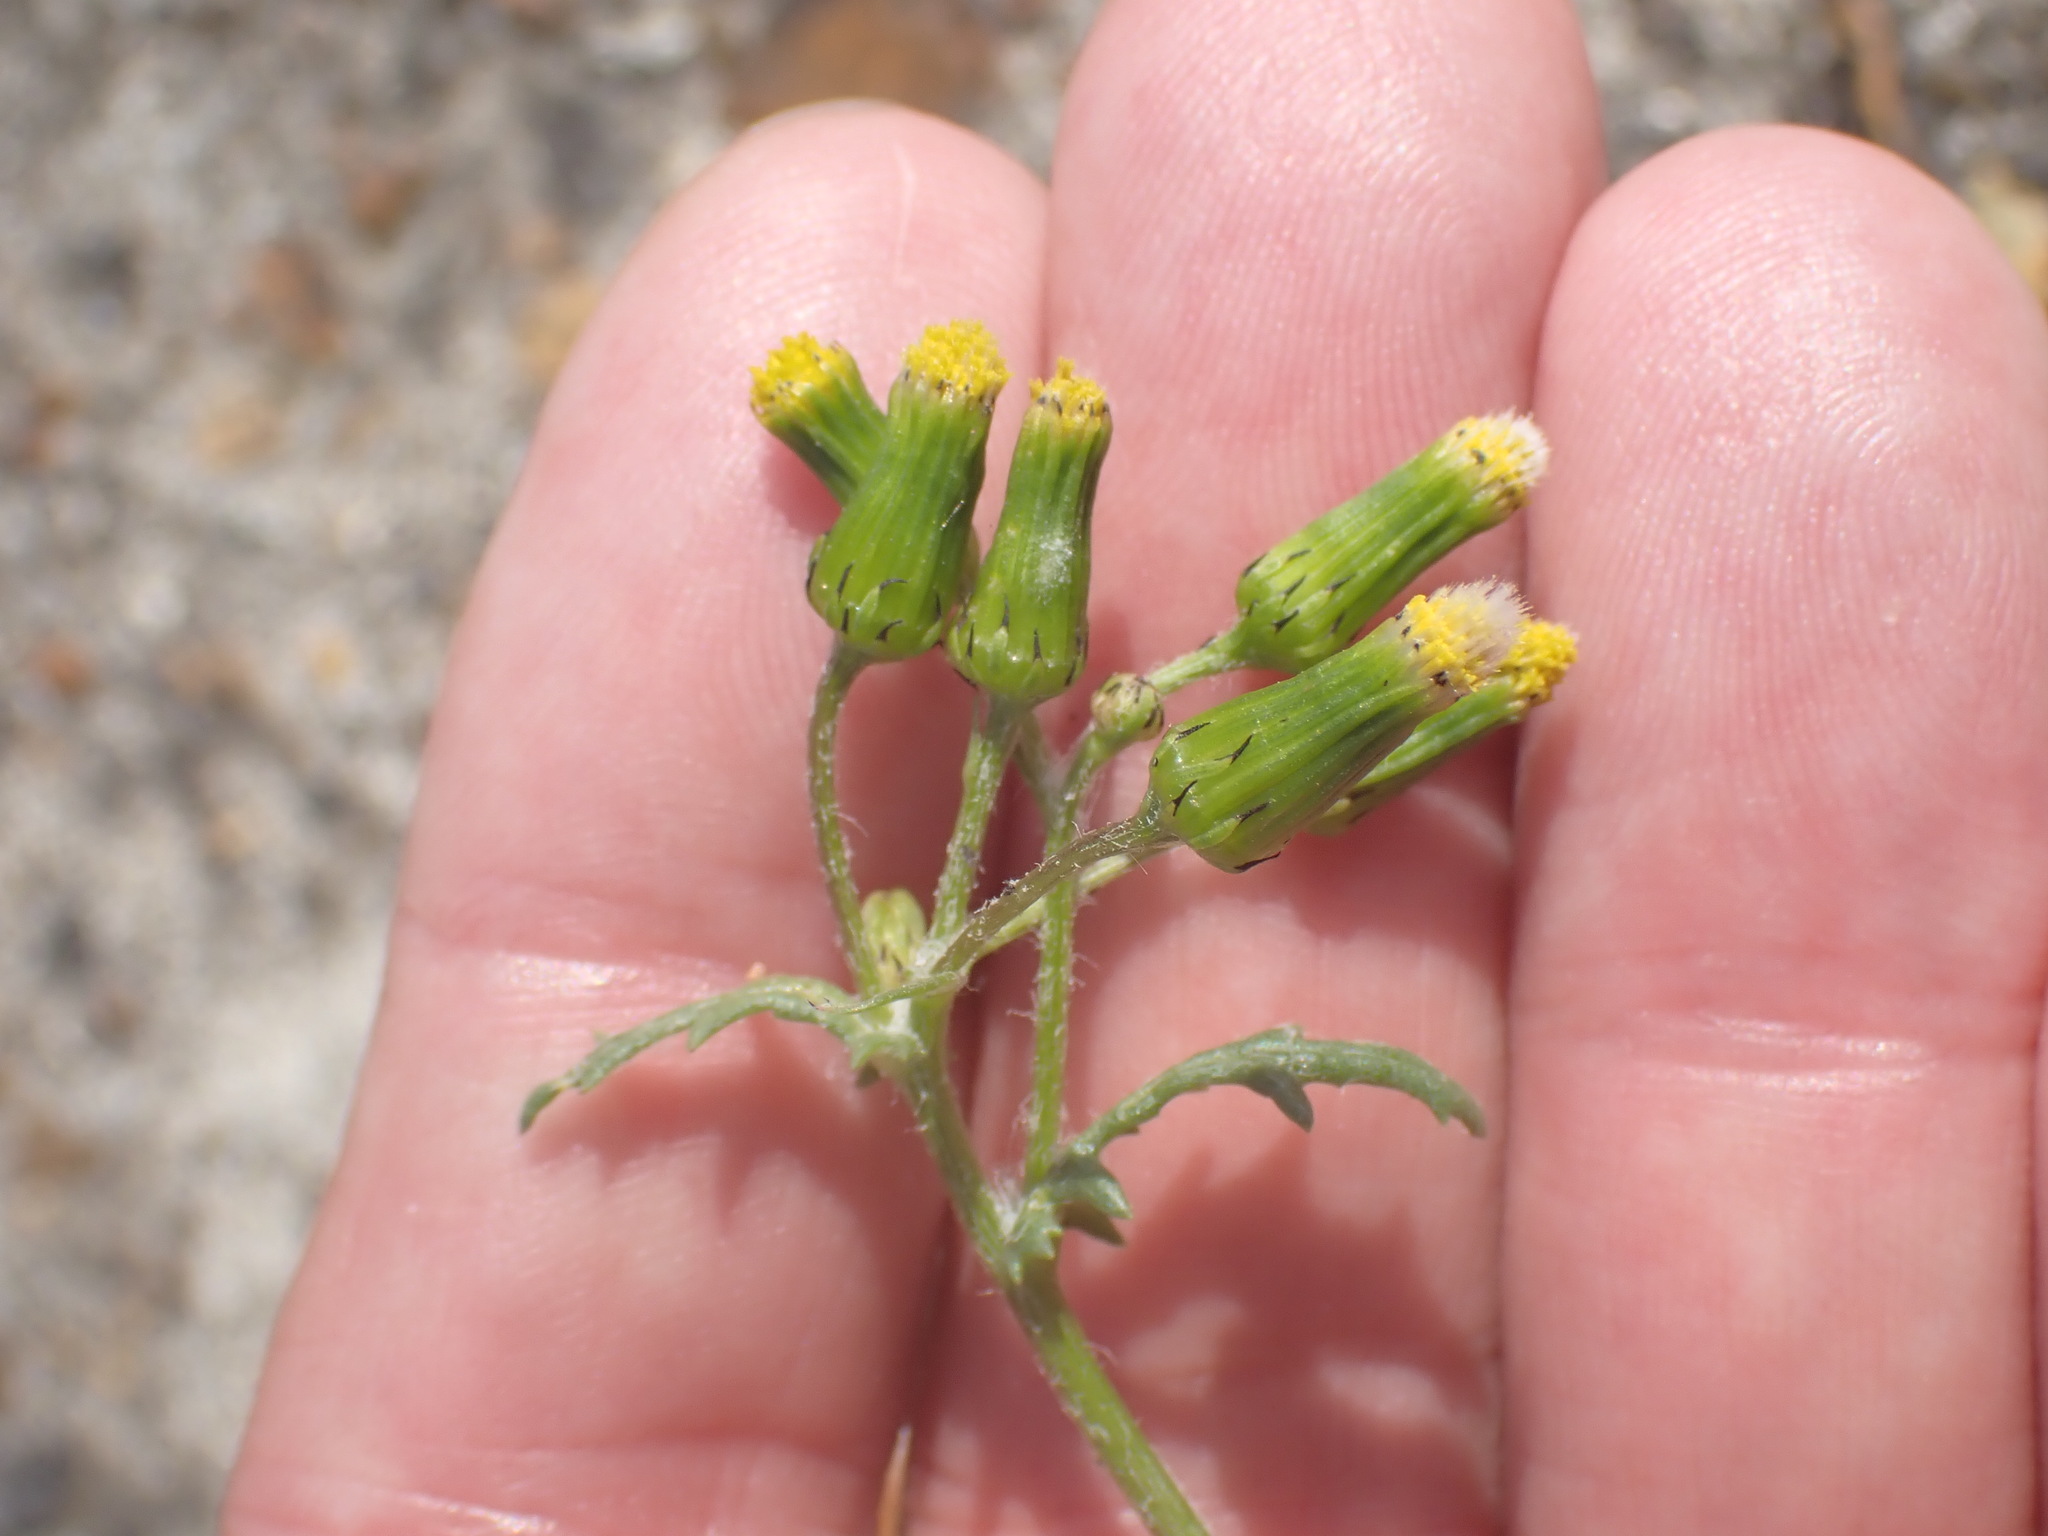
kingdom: Plantae
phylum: Tracheophyta
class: Magnoliopsida
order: Asterales
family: Asteraceae
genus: Senecio
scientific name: Senecio vulgaris
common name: Old-man-in-the-spring
